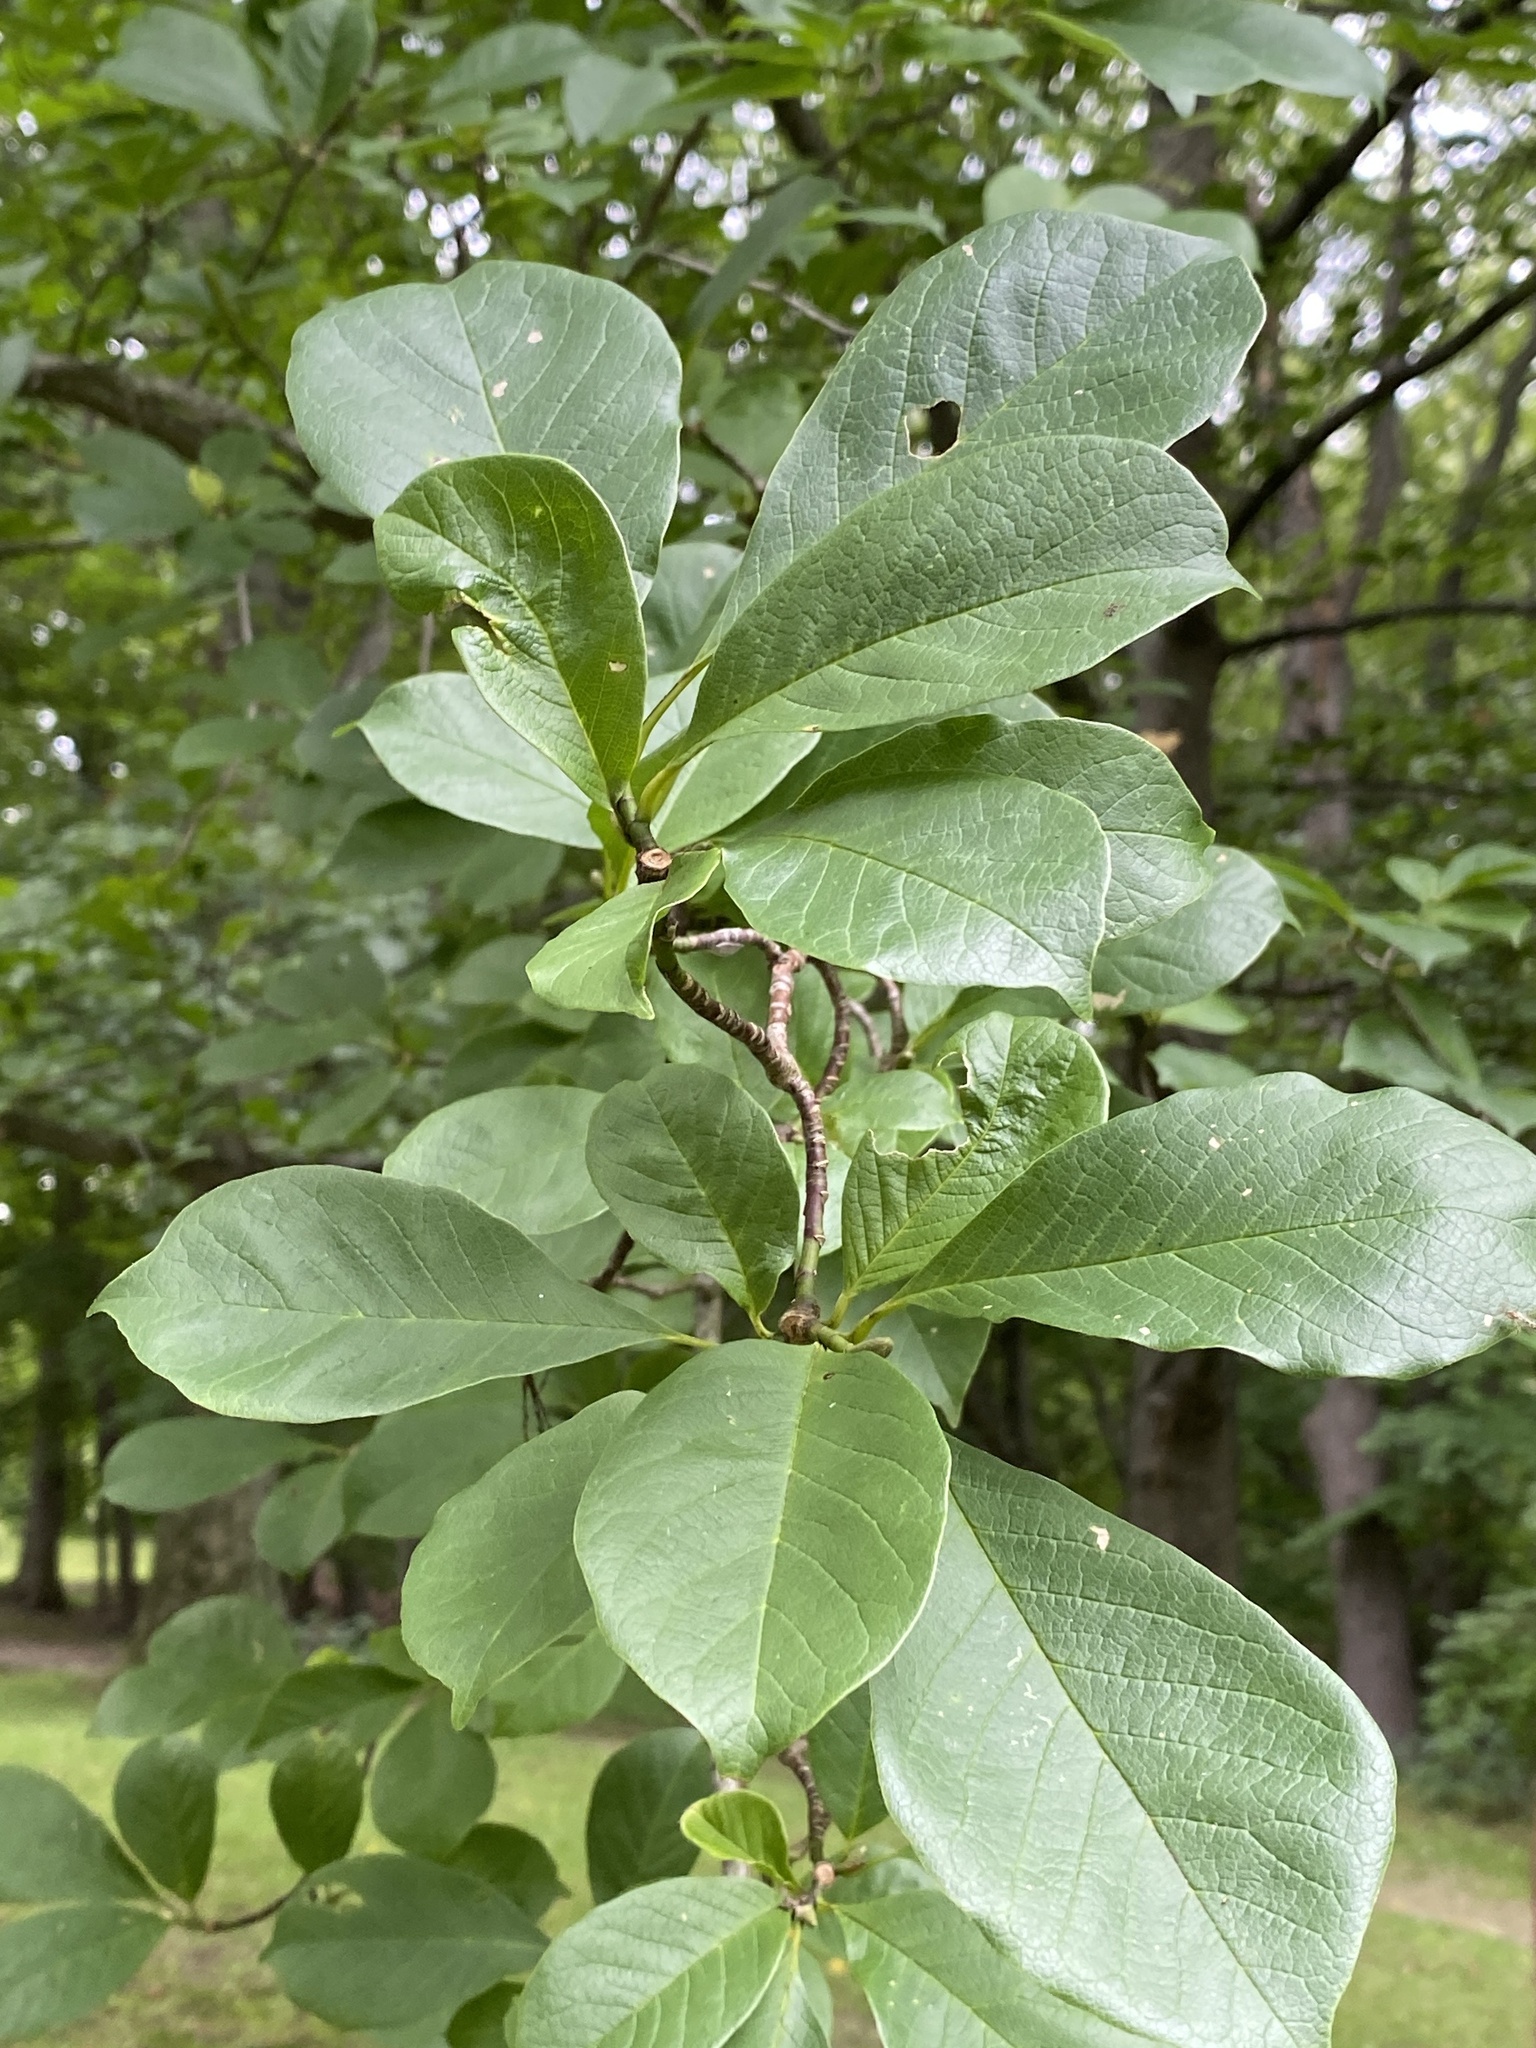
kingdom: Plantae
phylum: Tracheophyta
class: Magnoliopsida
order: Magnoliales
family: Magnoliaceae
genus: Magnolia
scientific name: Magnolia acuminata
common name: Cucumber magnolia
